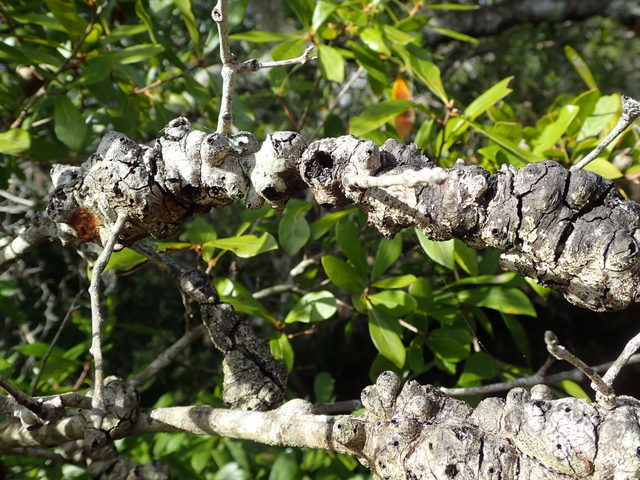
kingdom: Animalia
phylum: Arthropoda
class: Insecta
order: Hymenoptera
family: Cynipidae
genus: Callirhytis
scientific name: Callirhytis
